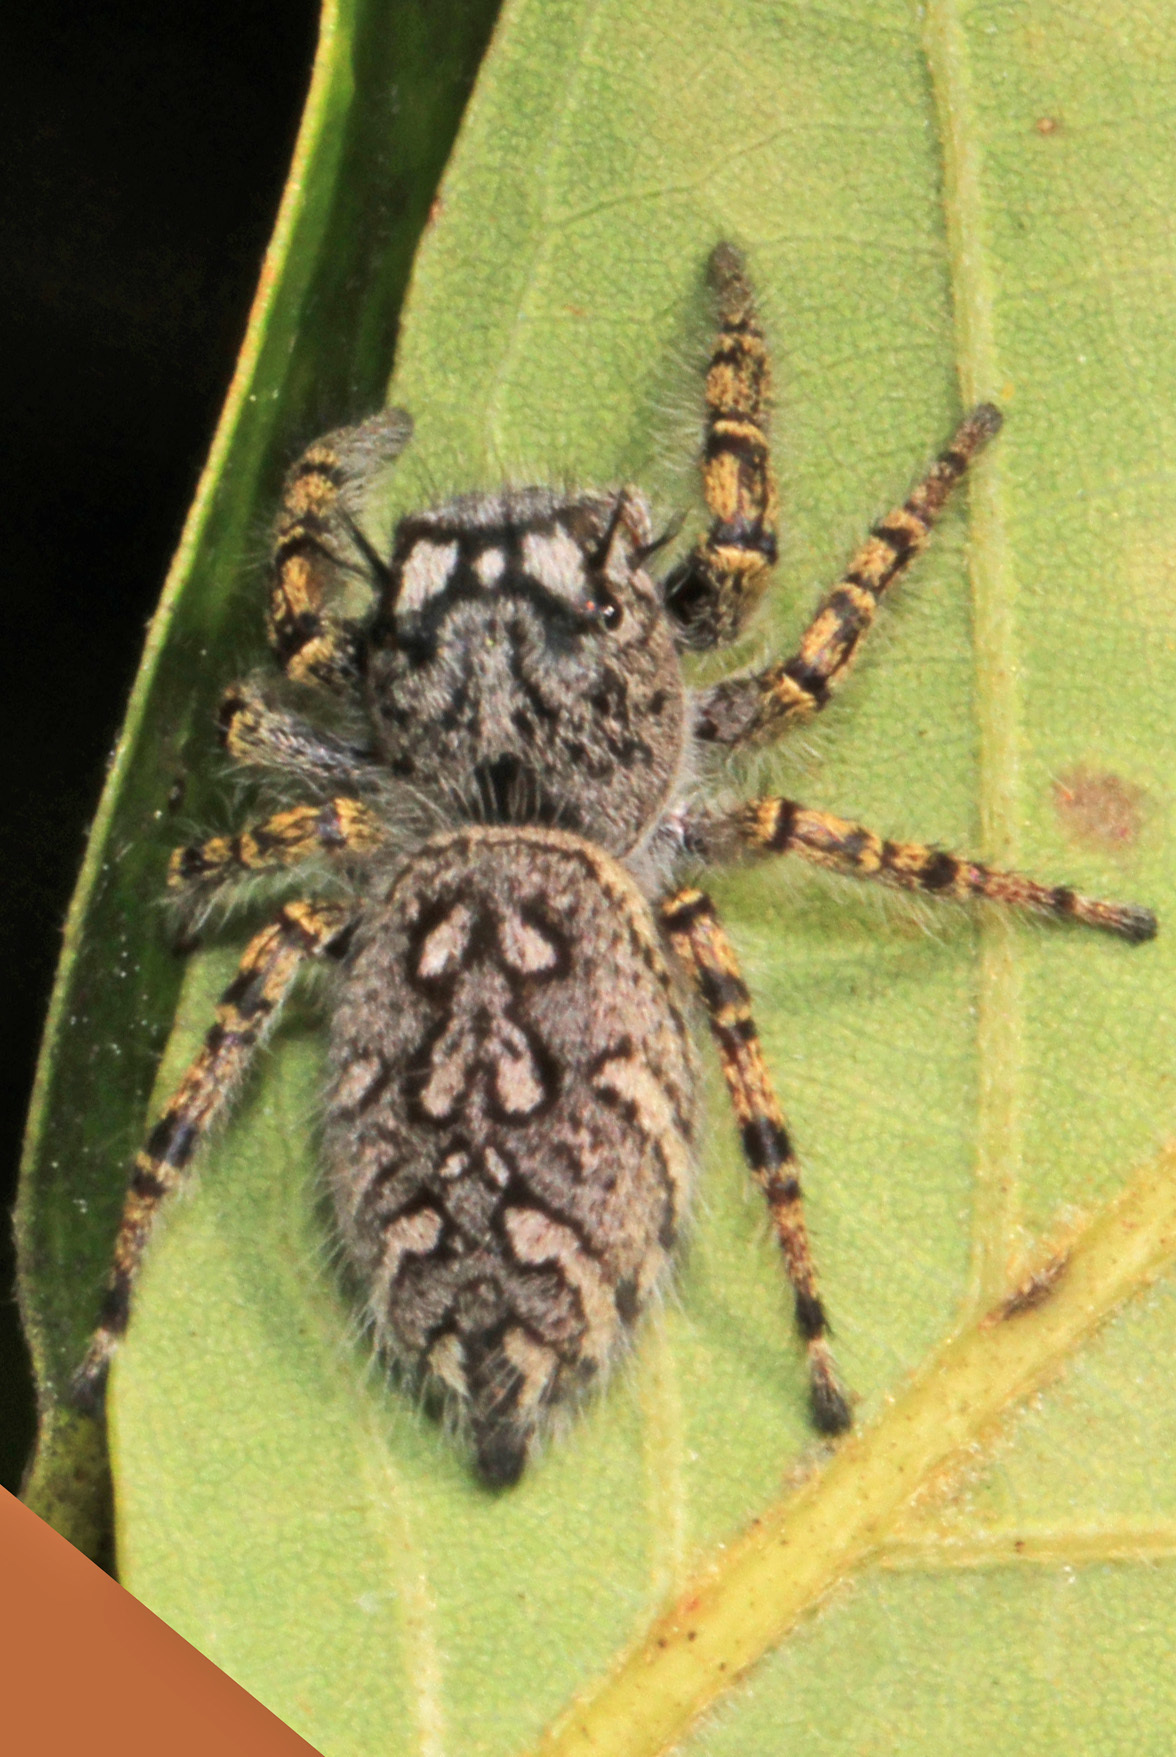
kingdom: Animalia
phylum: Arthropoda
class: Arachnida
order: Araneae
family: Salticidae
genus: Phidippus
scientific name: Phidippus mystaceus
